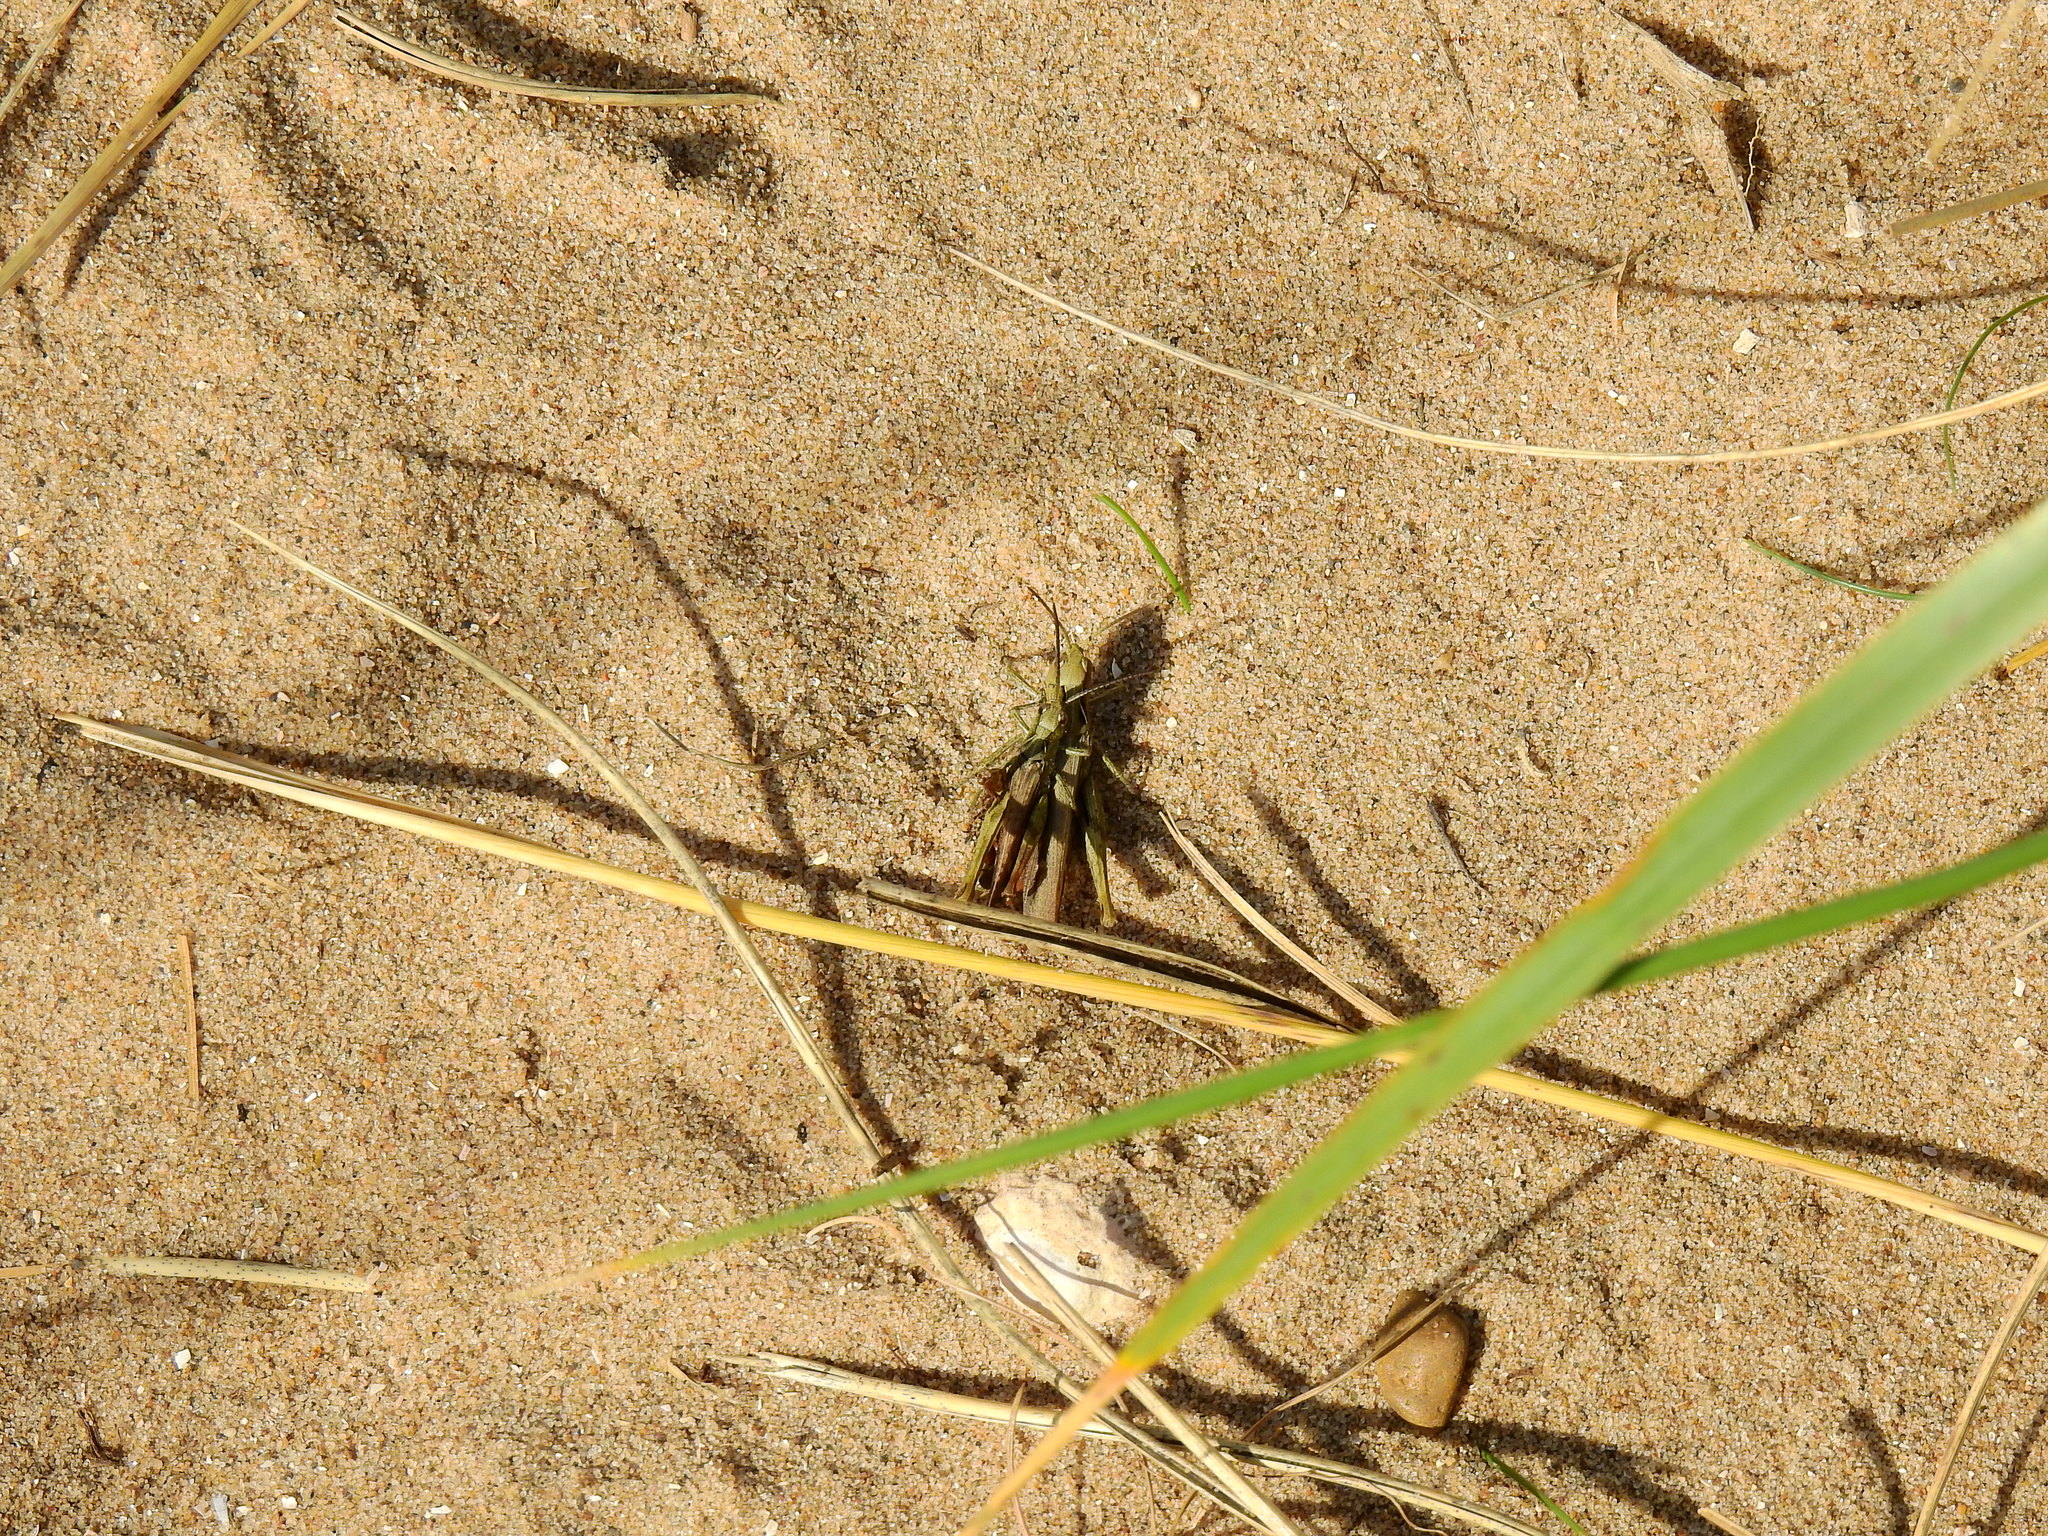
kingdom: Animalia
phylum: Arthropoda
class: Insecta
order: Orthoptera
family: Acrididae
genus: Chorthippus
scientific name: Chorthippus brunneus
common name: Field grasshopper
